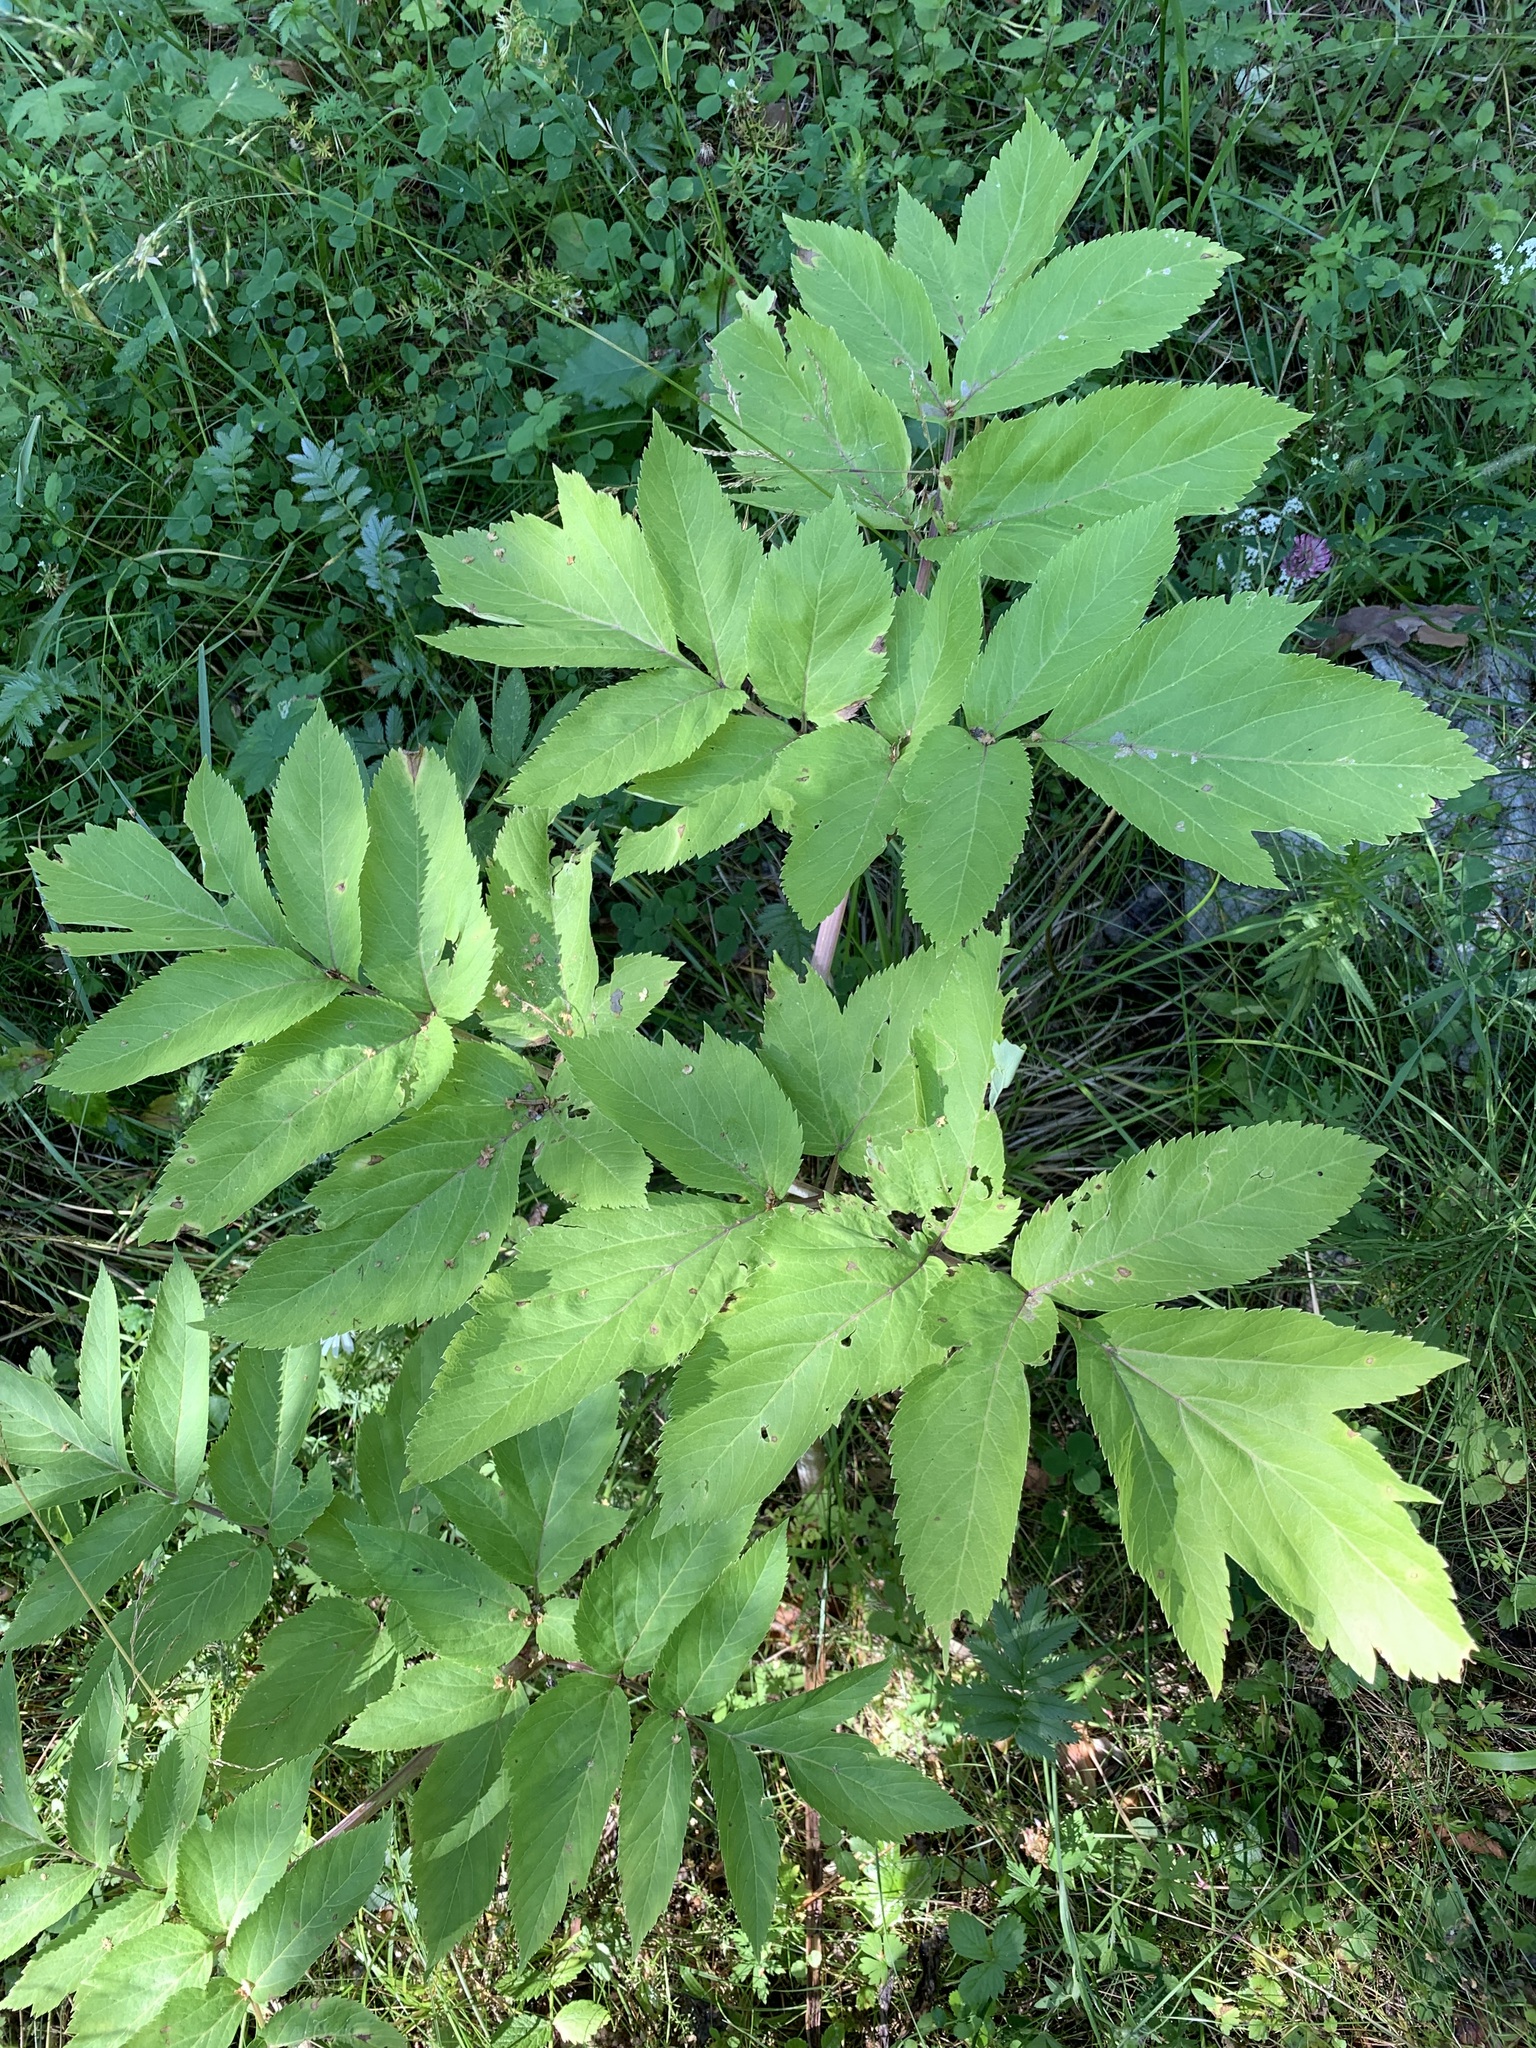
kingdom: Plantae
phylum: Tracheophyta
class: Magnoliopsida
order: Apiales
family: Apiaceae
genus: Angelica
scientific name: Angelica decurrens
